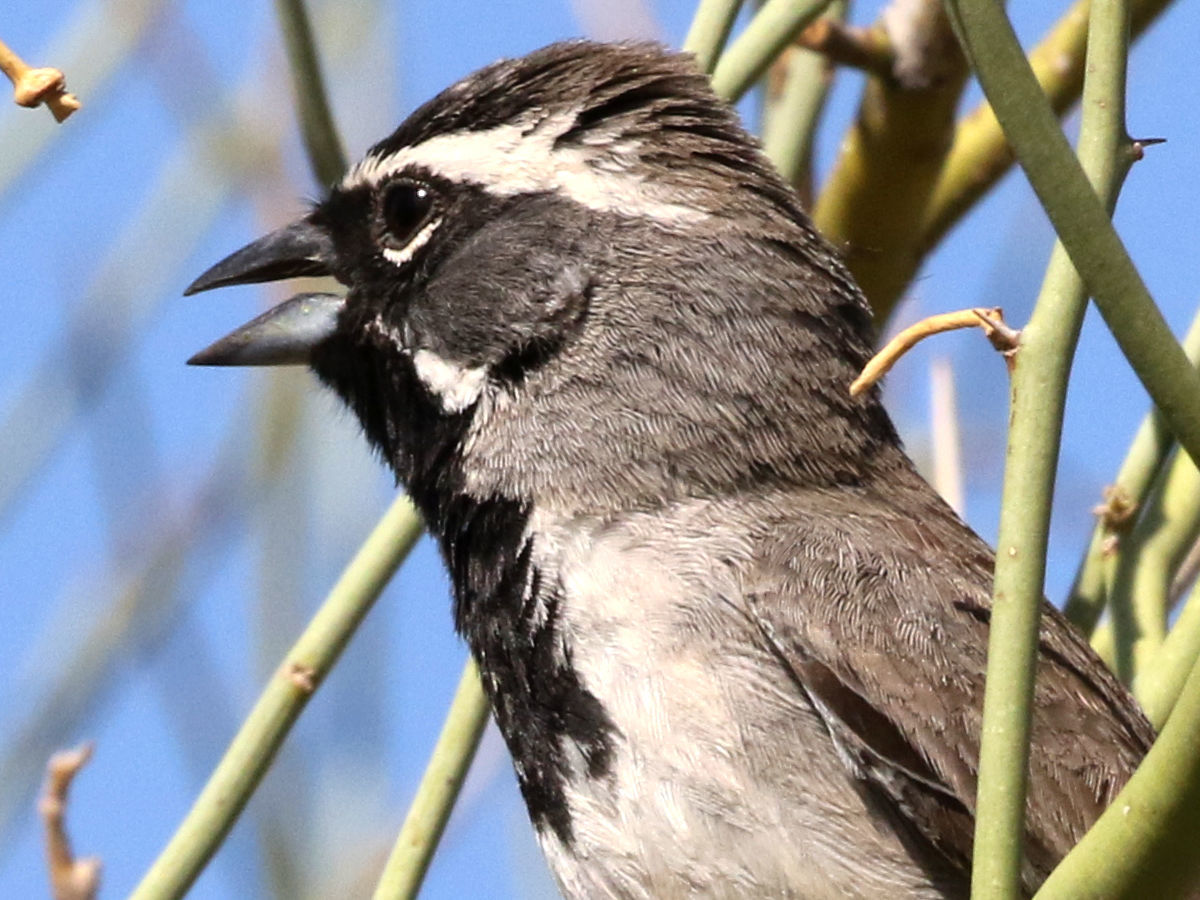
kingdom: Animalia
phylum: Chordata
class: Aves
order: Passeriformes
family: Passerellidae
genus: Amphispiza
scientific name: Amphispiza bilineata
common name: Black-throated sparrow
